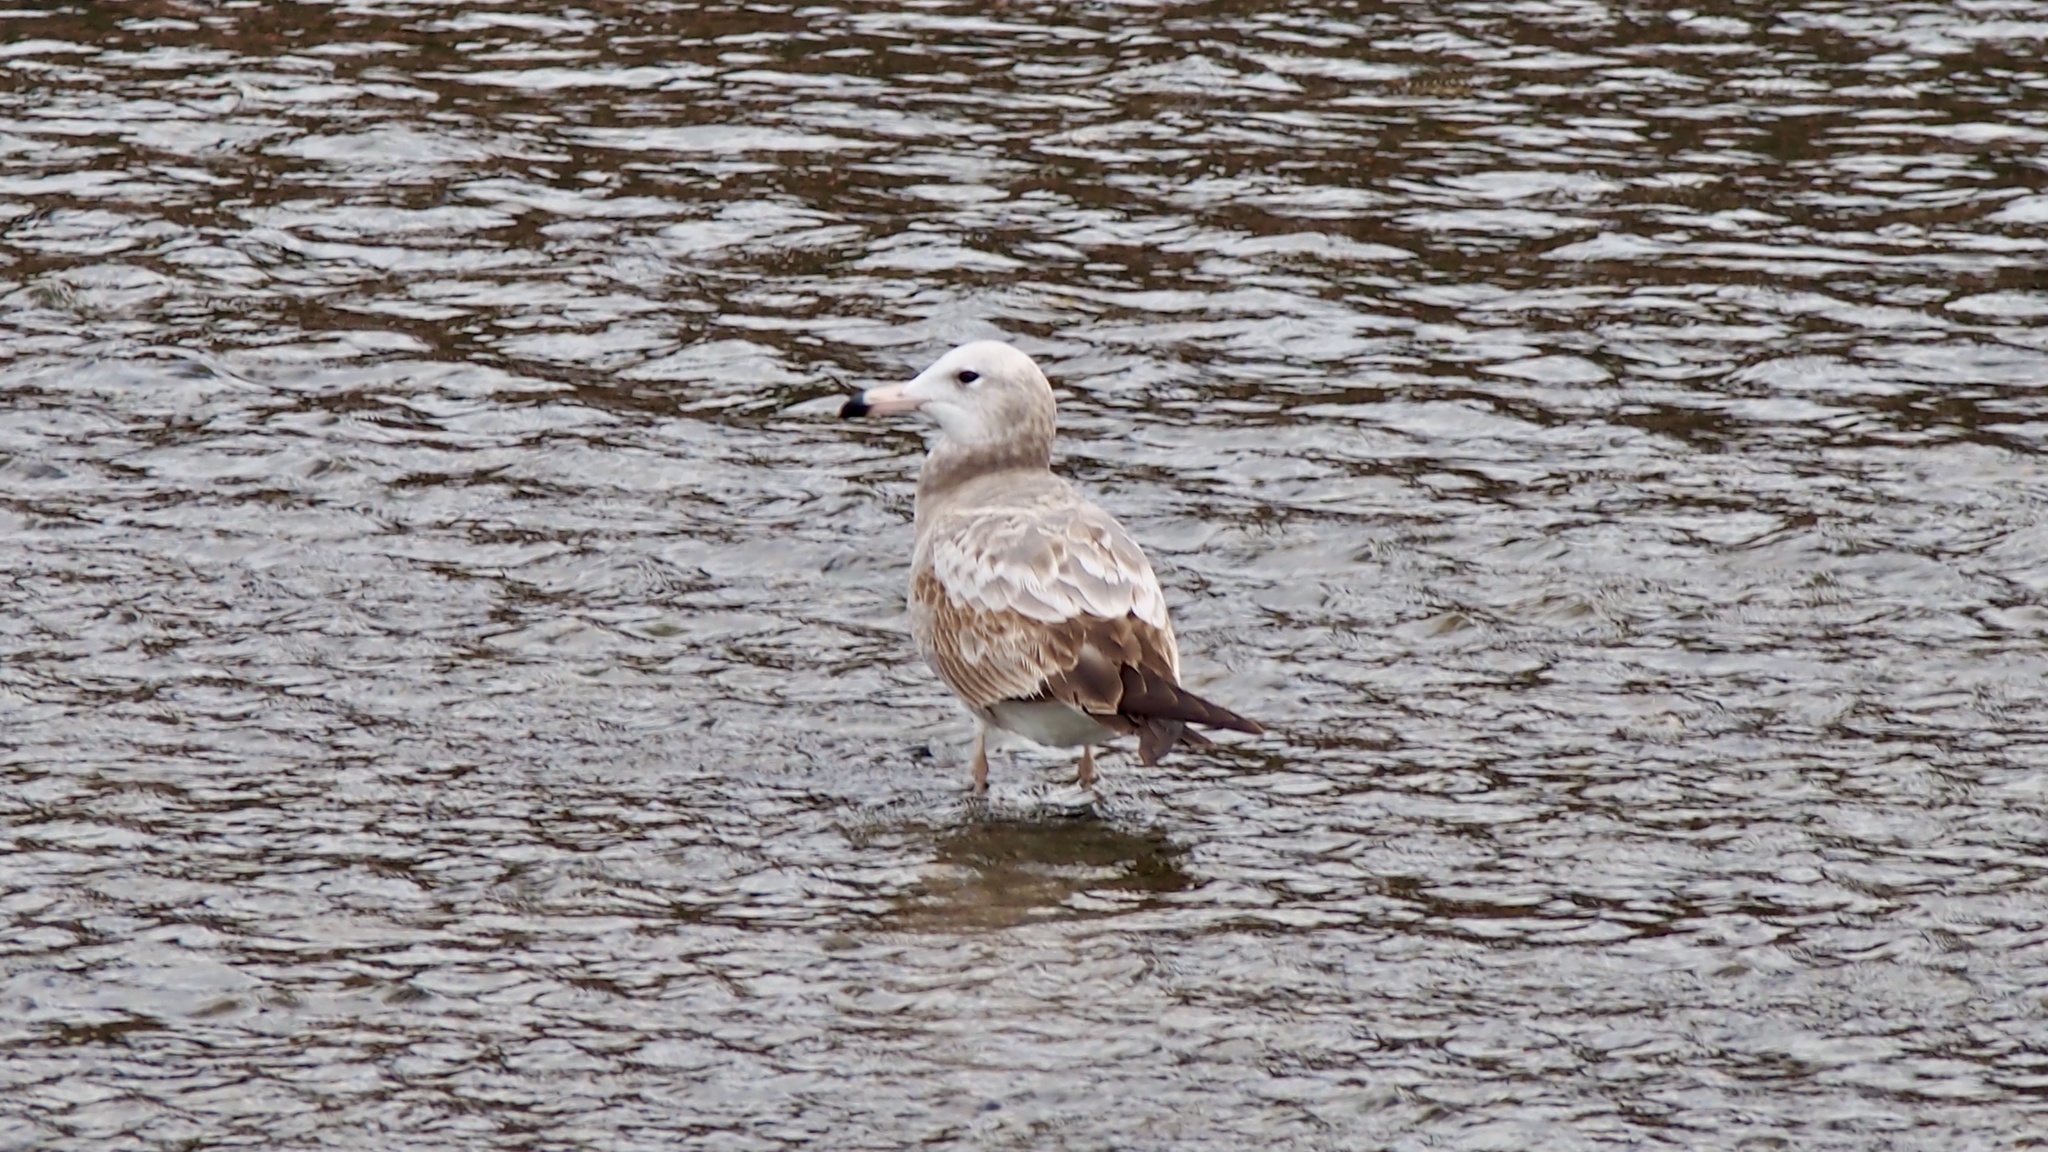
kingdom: Animalia
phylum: Chordata
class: Aves
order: Charadriiformes
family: Laridae
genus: Larus
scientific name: Larus crassirostris
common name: Black-tailed gull
